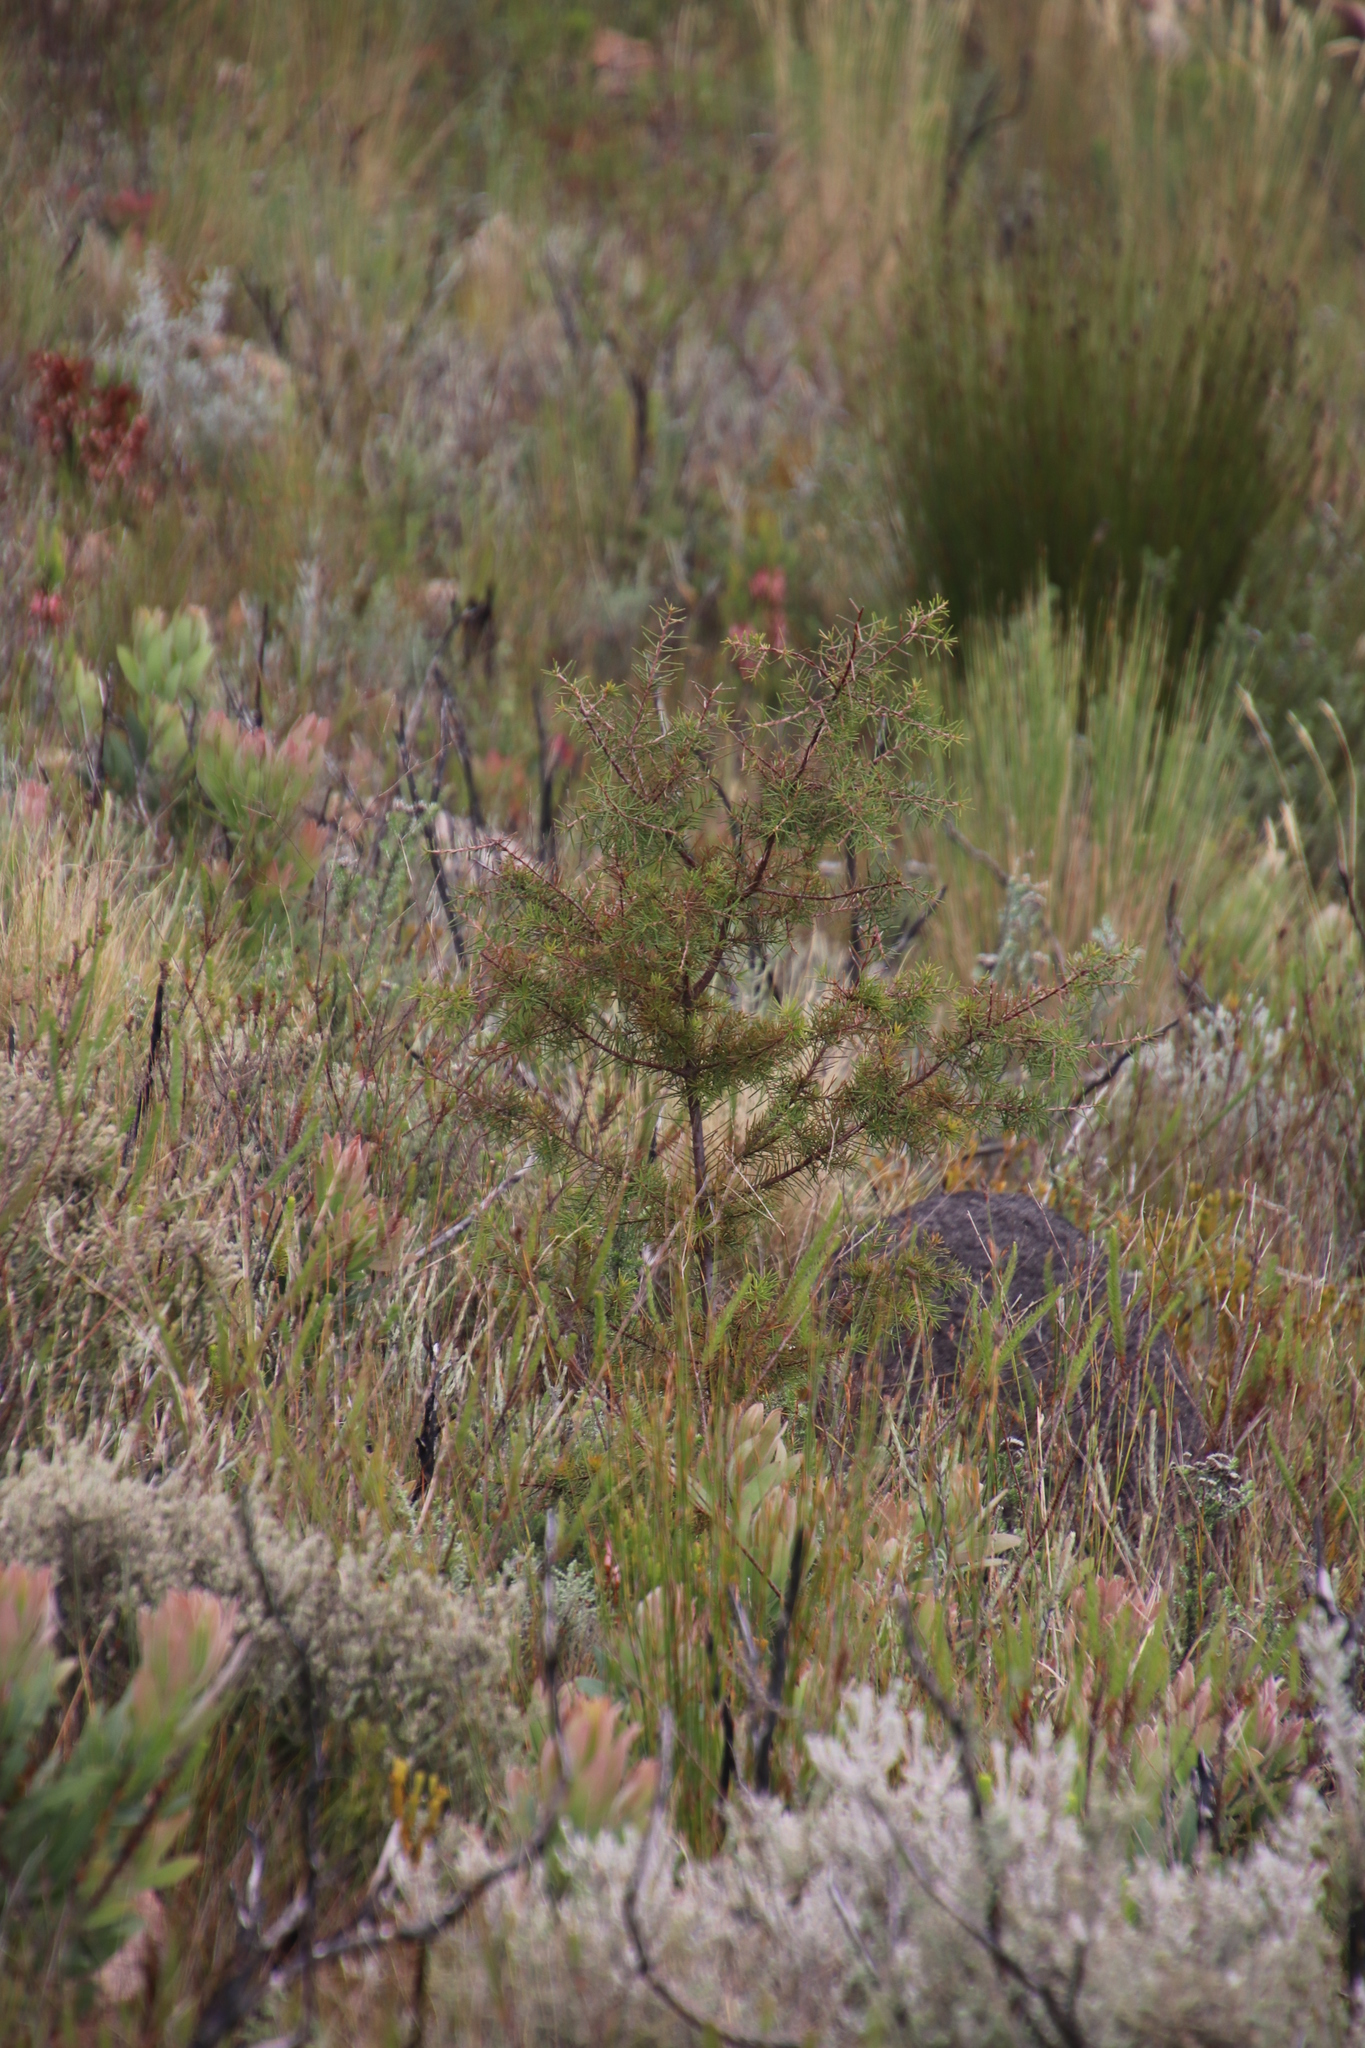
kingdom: Plantae
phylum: Tracheophyta
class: Magnoliopsida
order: Proteales
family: Proteaceae
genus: Hakea
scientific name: Hakea sericea
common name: Needle bush
